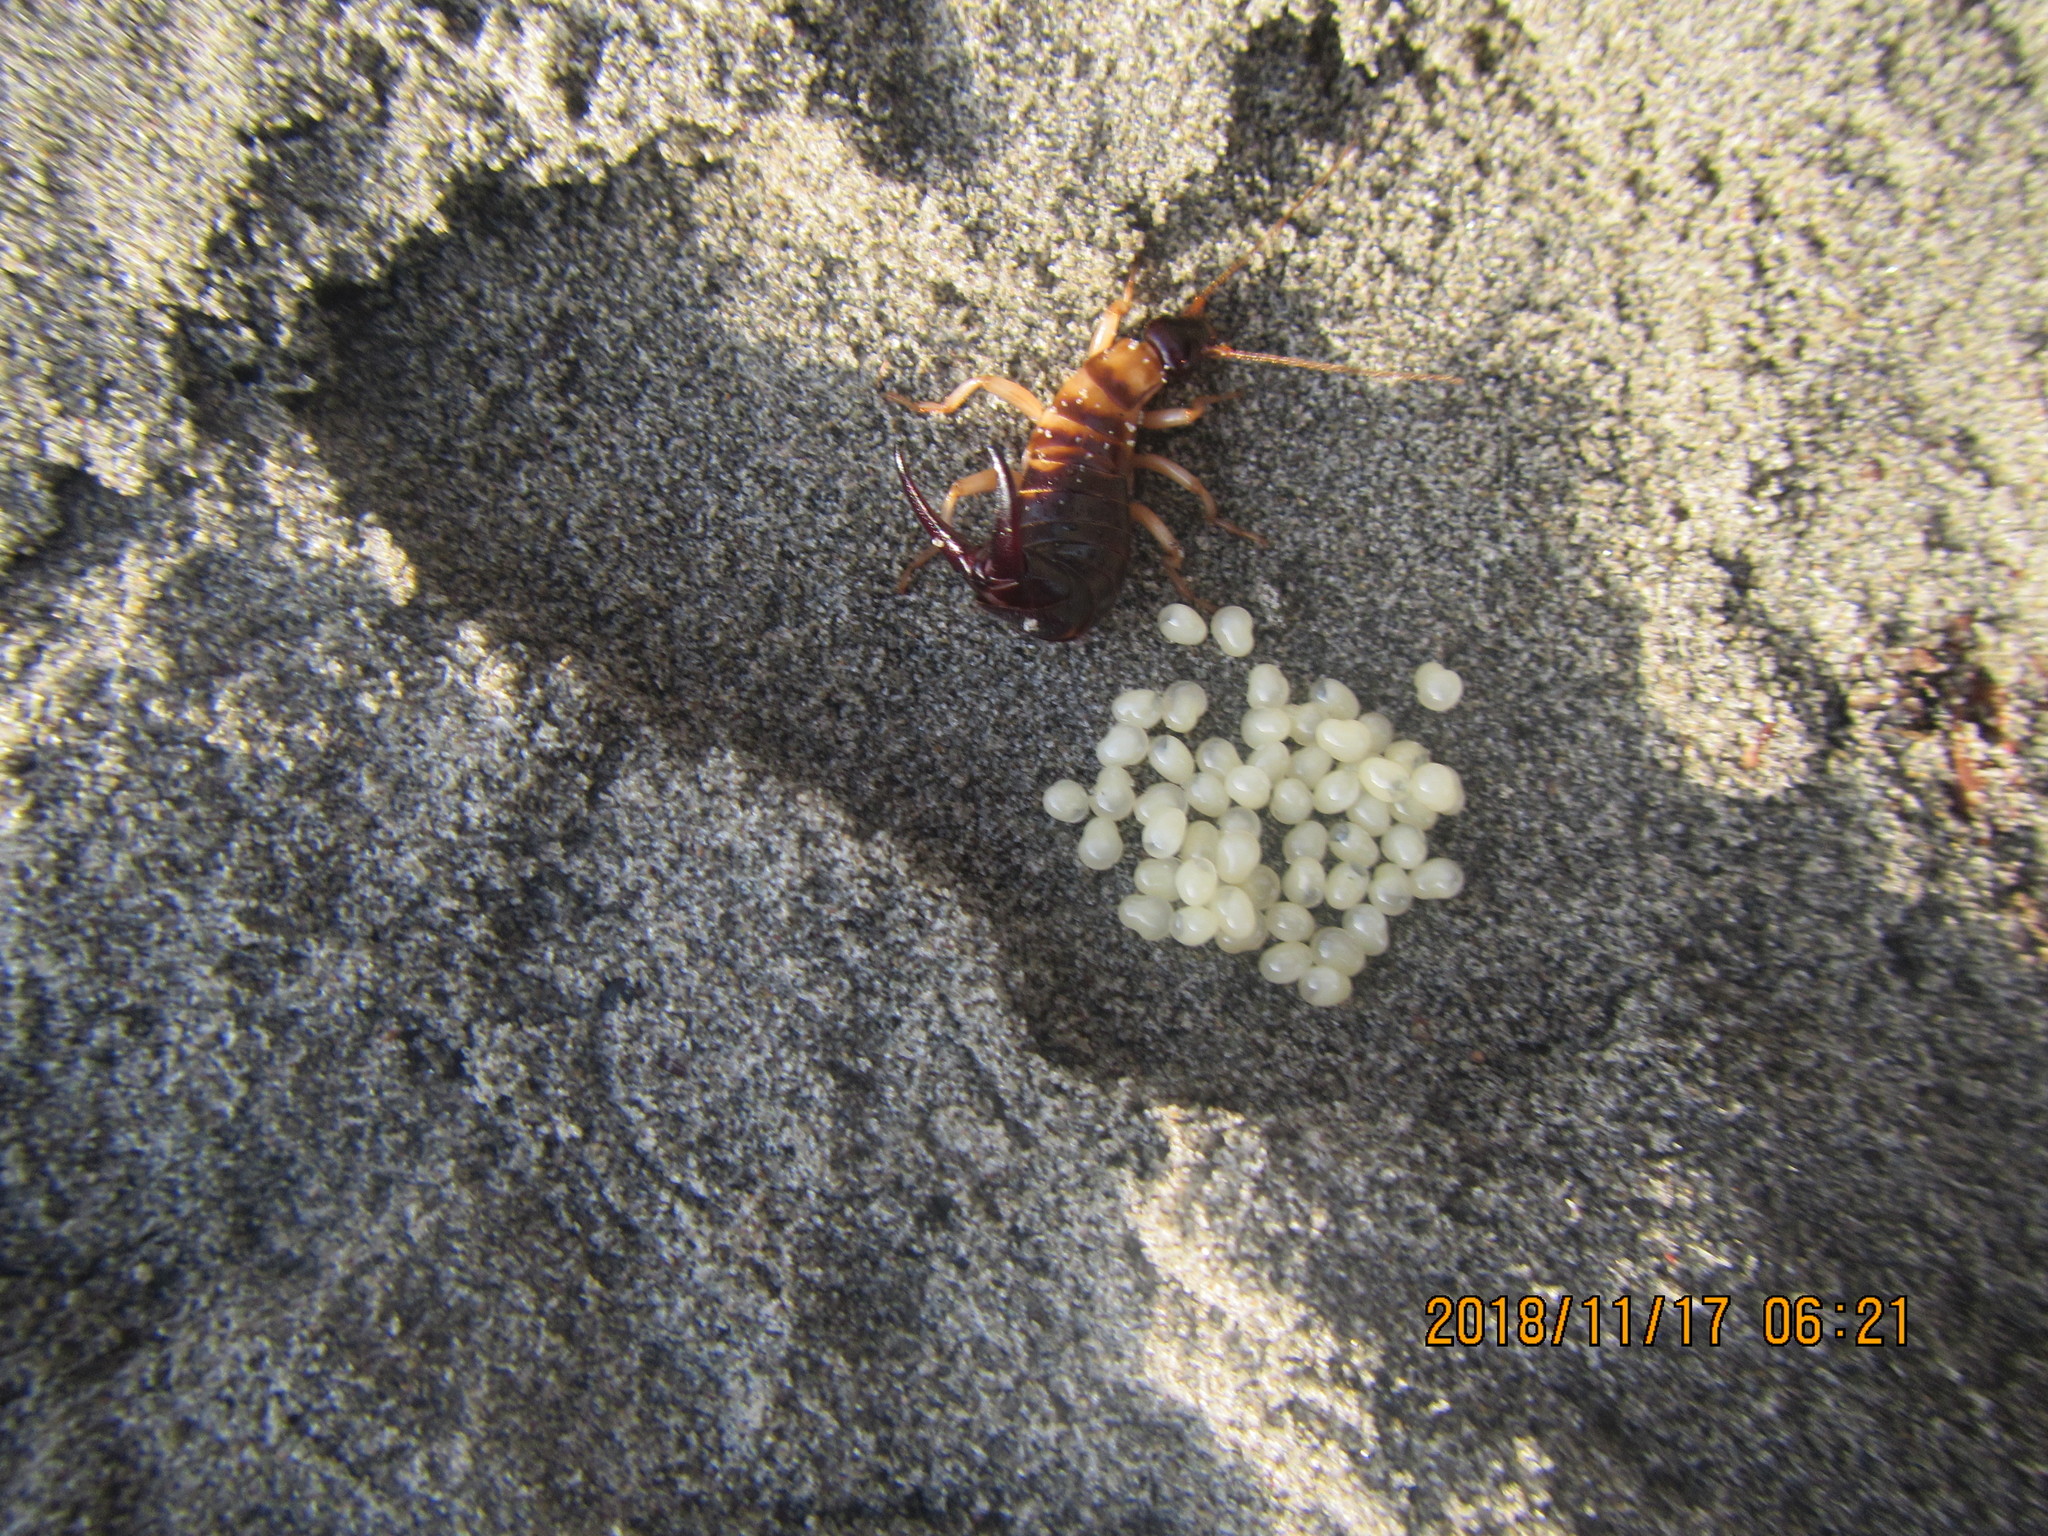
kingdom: Animalia
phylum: Arthropoda
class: Insecta
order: Dermaptera
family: Anisolabididae
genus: Anisolabis
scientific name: Anisolabis littorea
